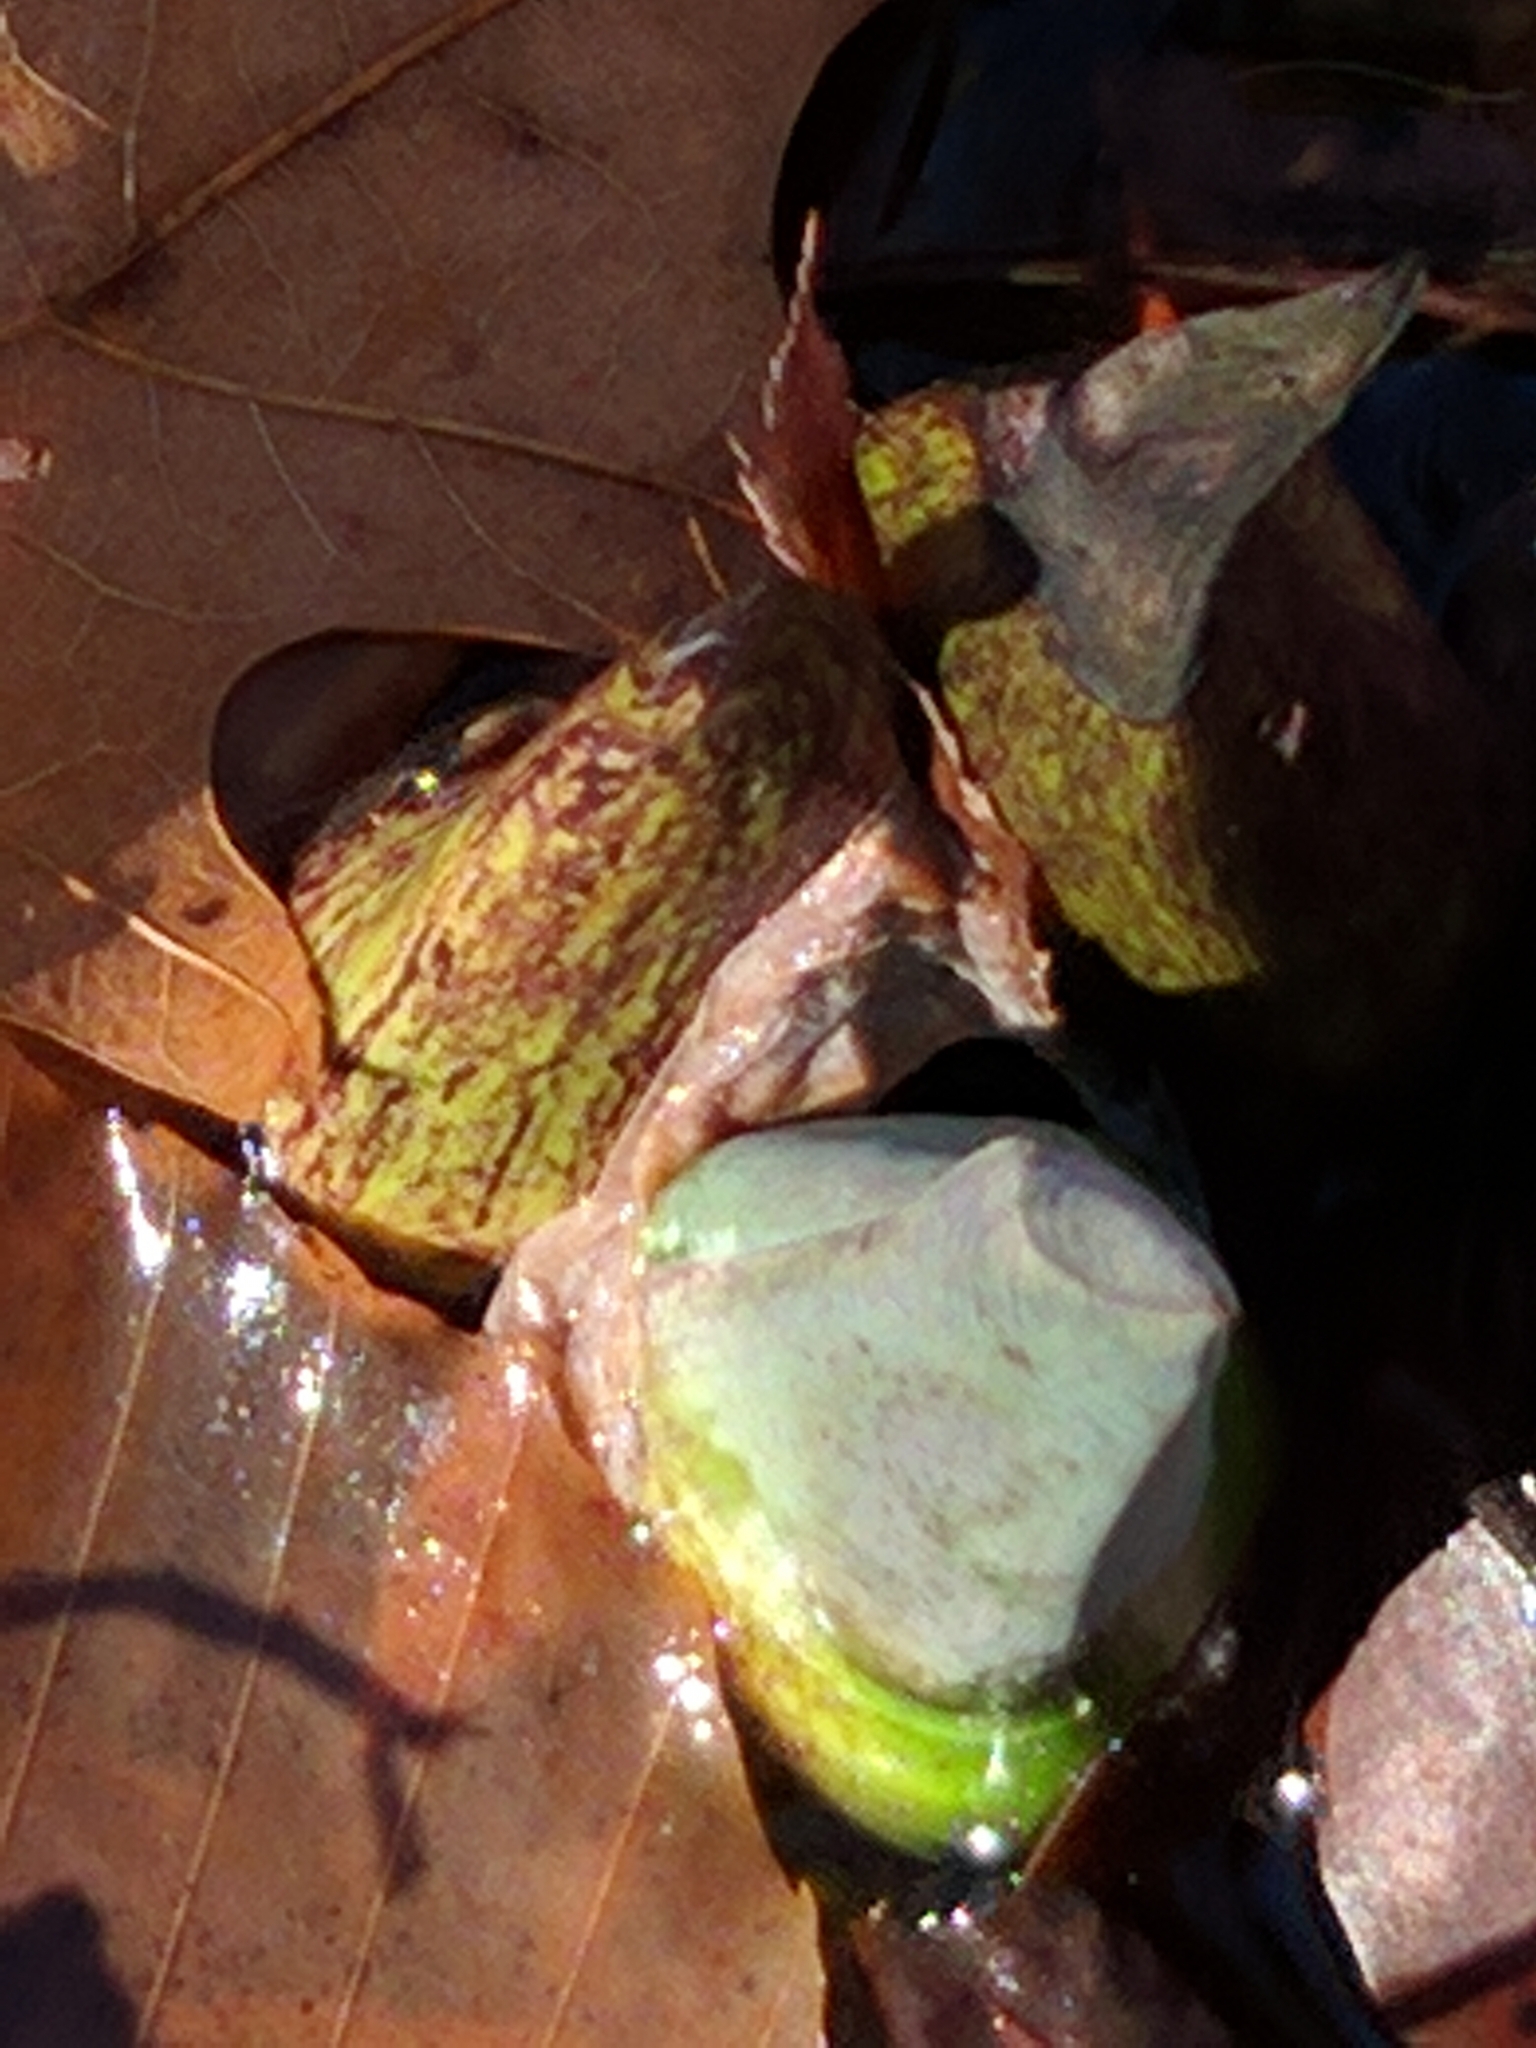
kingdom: Plantae
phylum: Tracheophyta
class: Liliopsida
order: Alismatales
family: Araceae
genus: Symplocarpus
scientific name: Symplocarpus foetidus
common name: Eastern skunk cabbage
